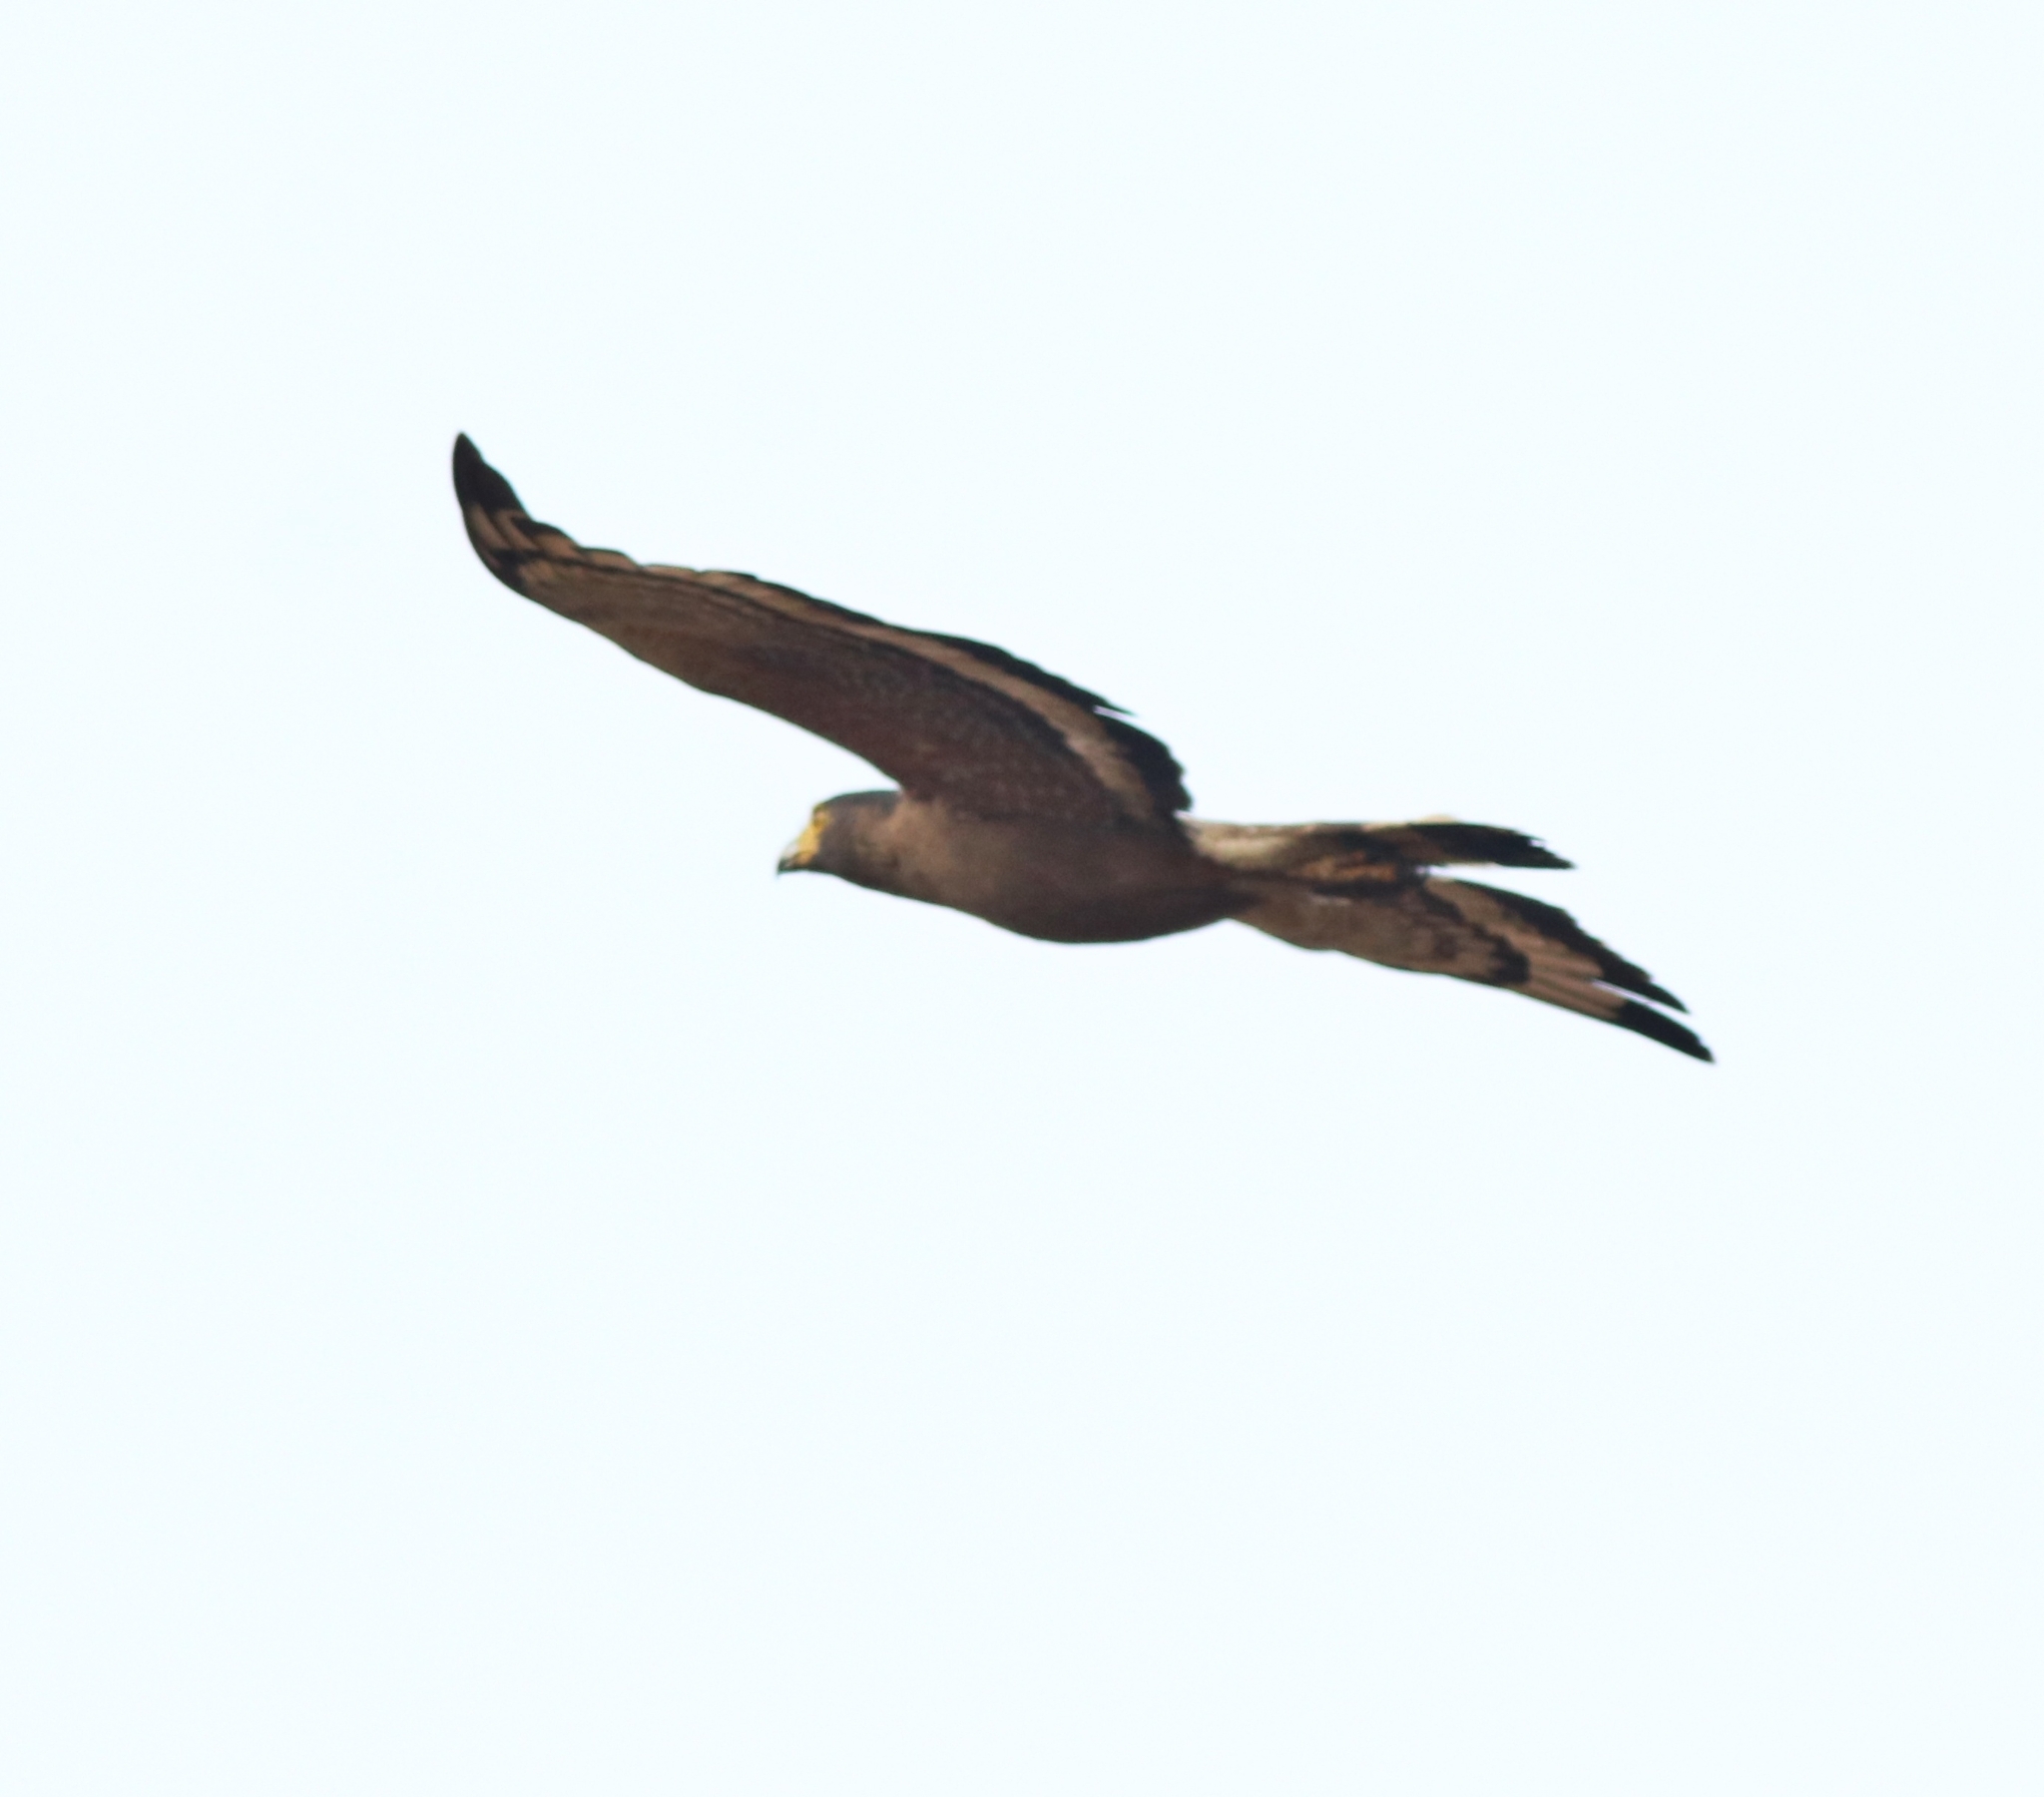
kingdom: Animalia
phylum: Chordata
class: Aves
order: Accipitriformes
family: Accipitridae
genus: Spilornis
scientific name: Spilornis cheela
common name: Crested serpent eagle
